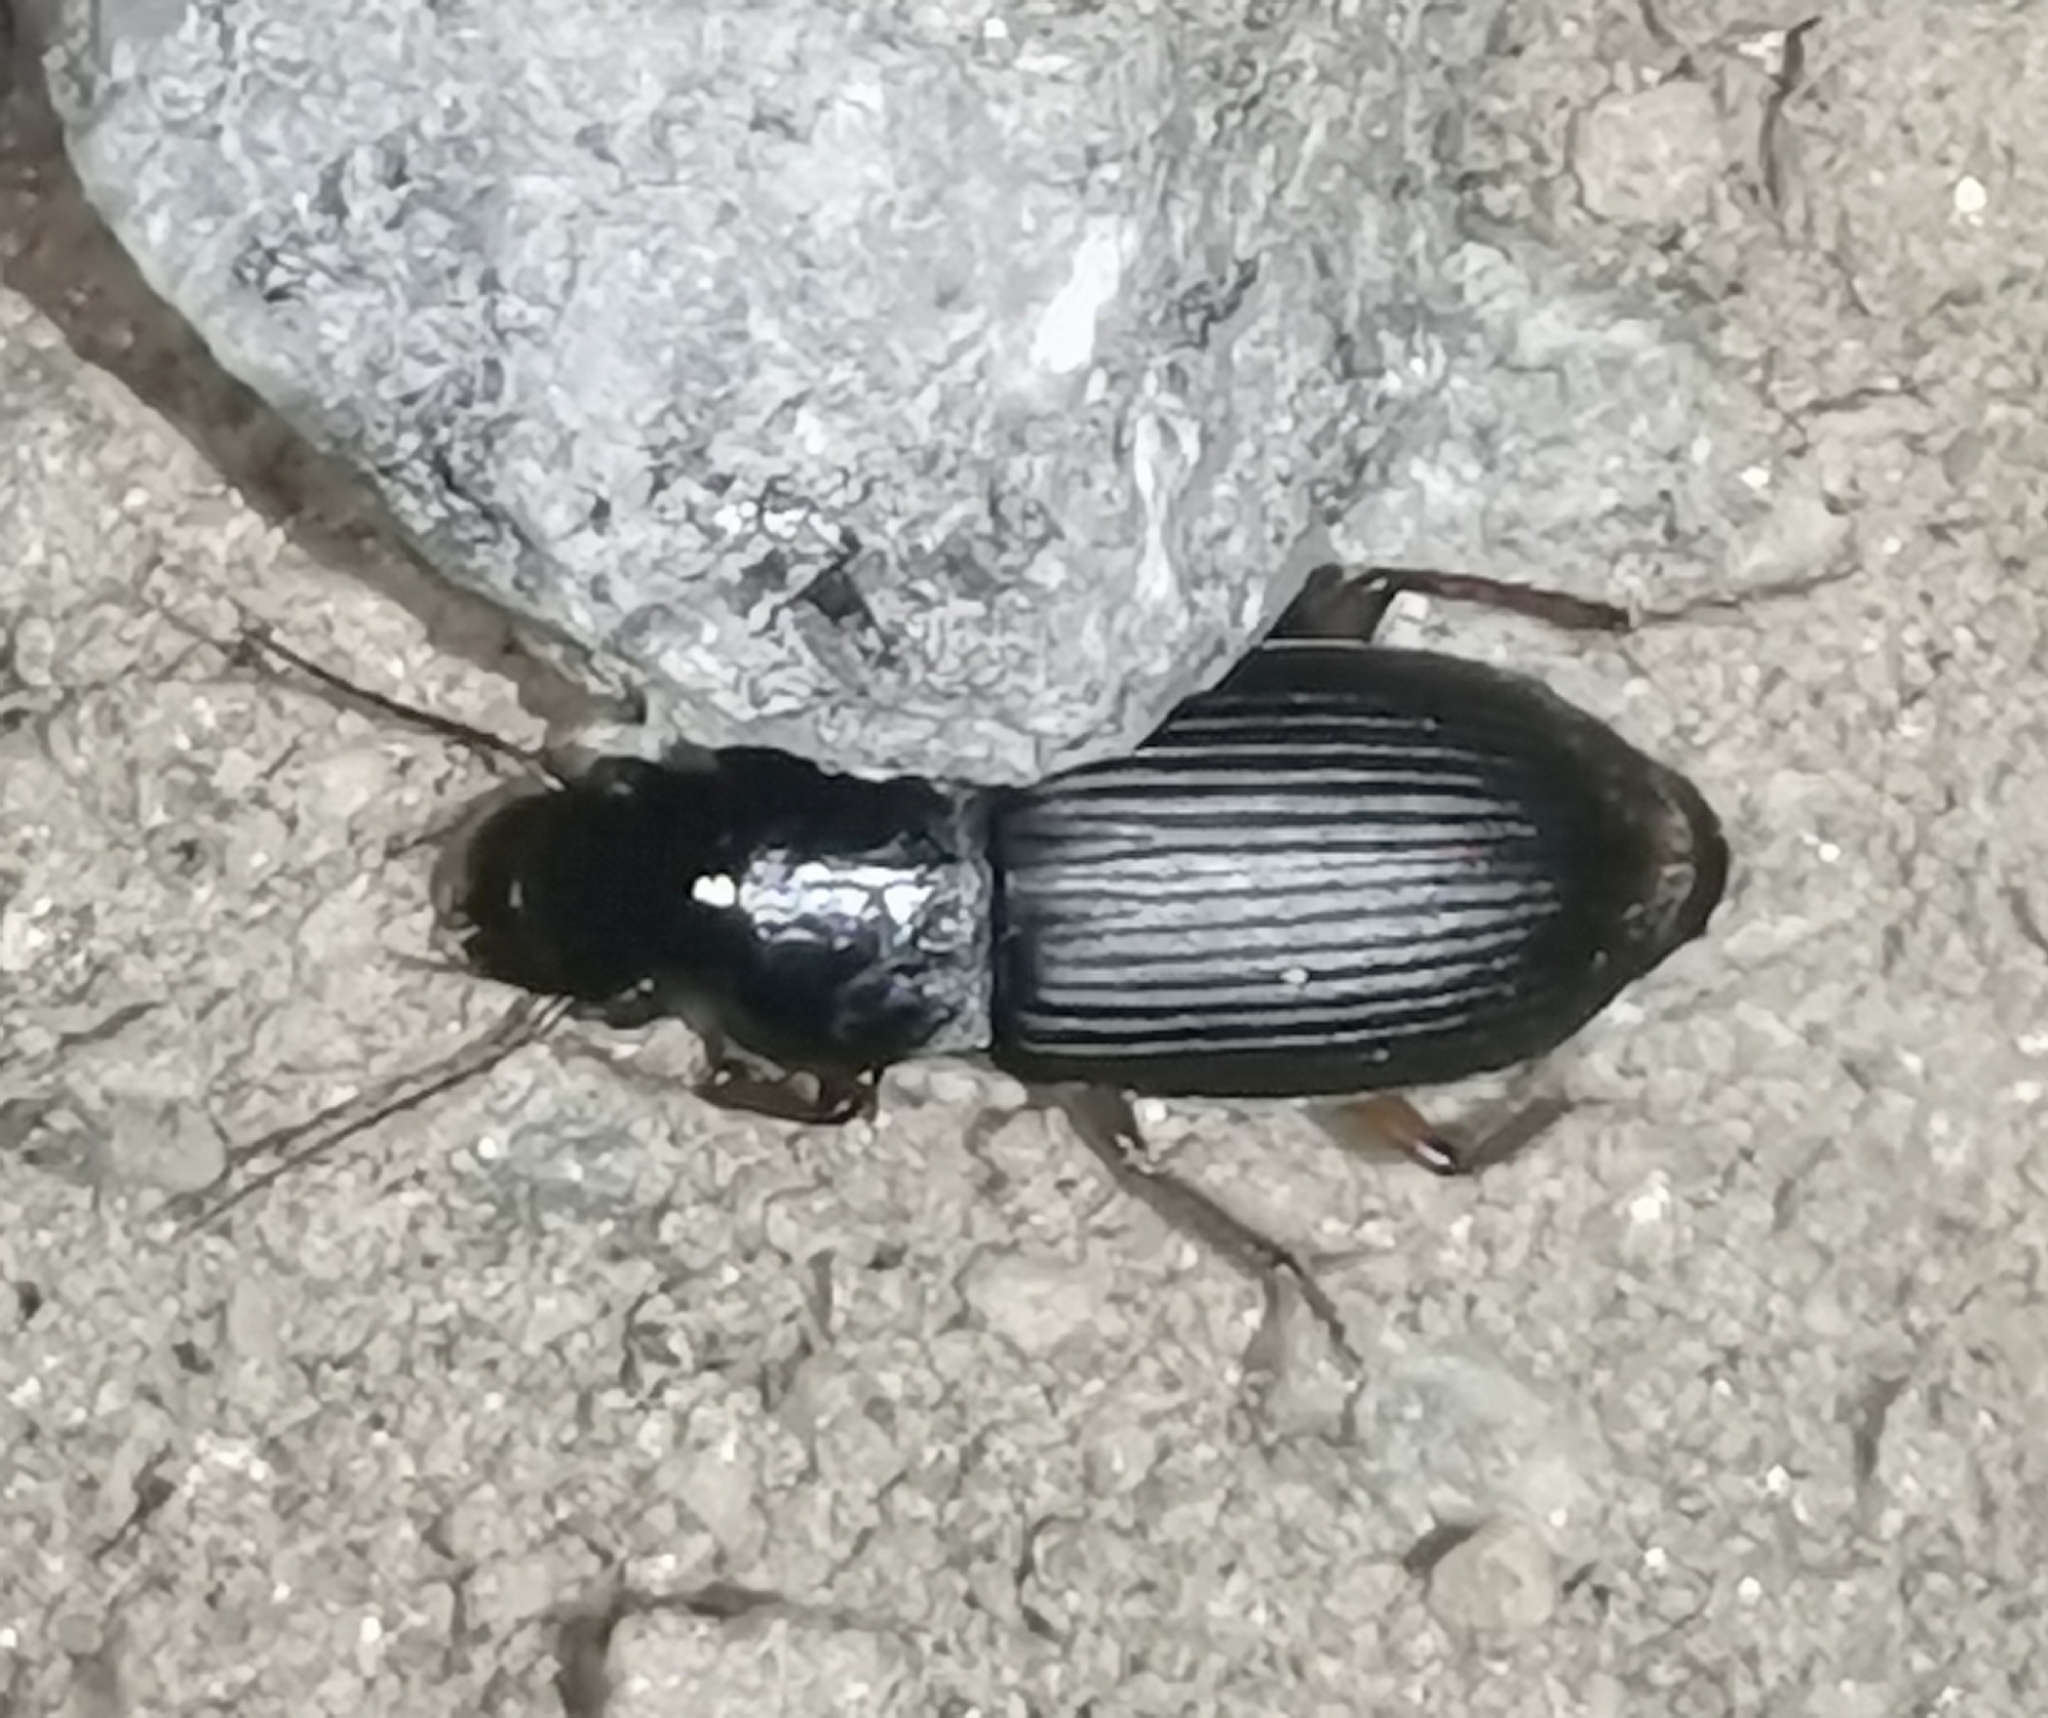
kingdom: Animalia
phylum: Arthropoda
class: Insecta
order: Coleoptera
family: Carabidae
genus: Harpalus
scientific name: Harpalus rufipes
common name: Strawberry harp ground beetle
